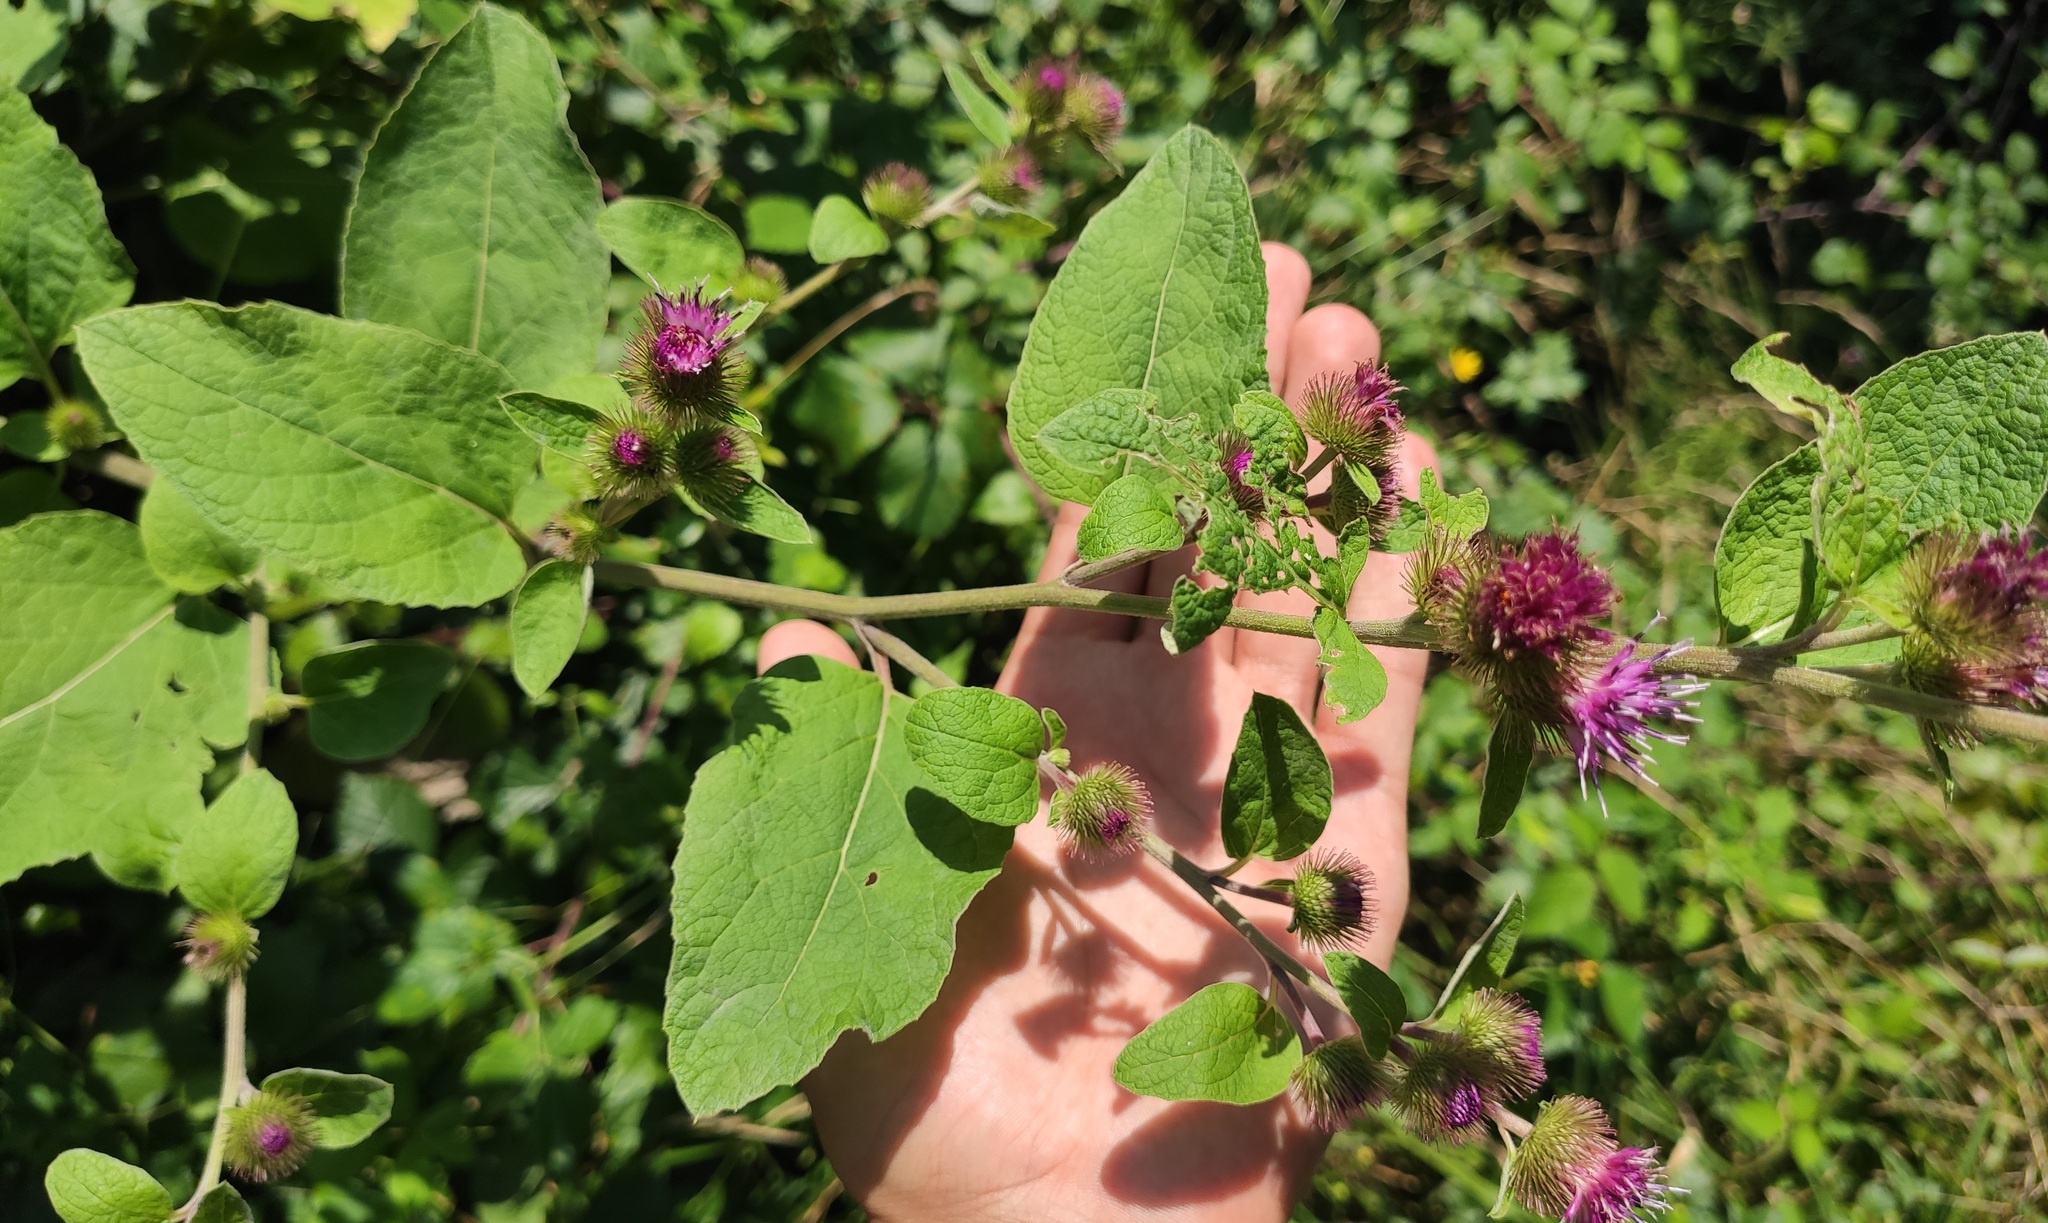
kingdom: Plantae
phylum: Tracheophyta
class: Magnoliopsida
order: Asterales
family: Asteraceae
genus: Arctium
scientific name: Arctium minus
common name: Lesser burdock
